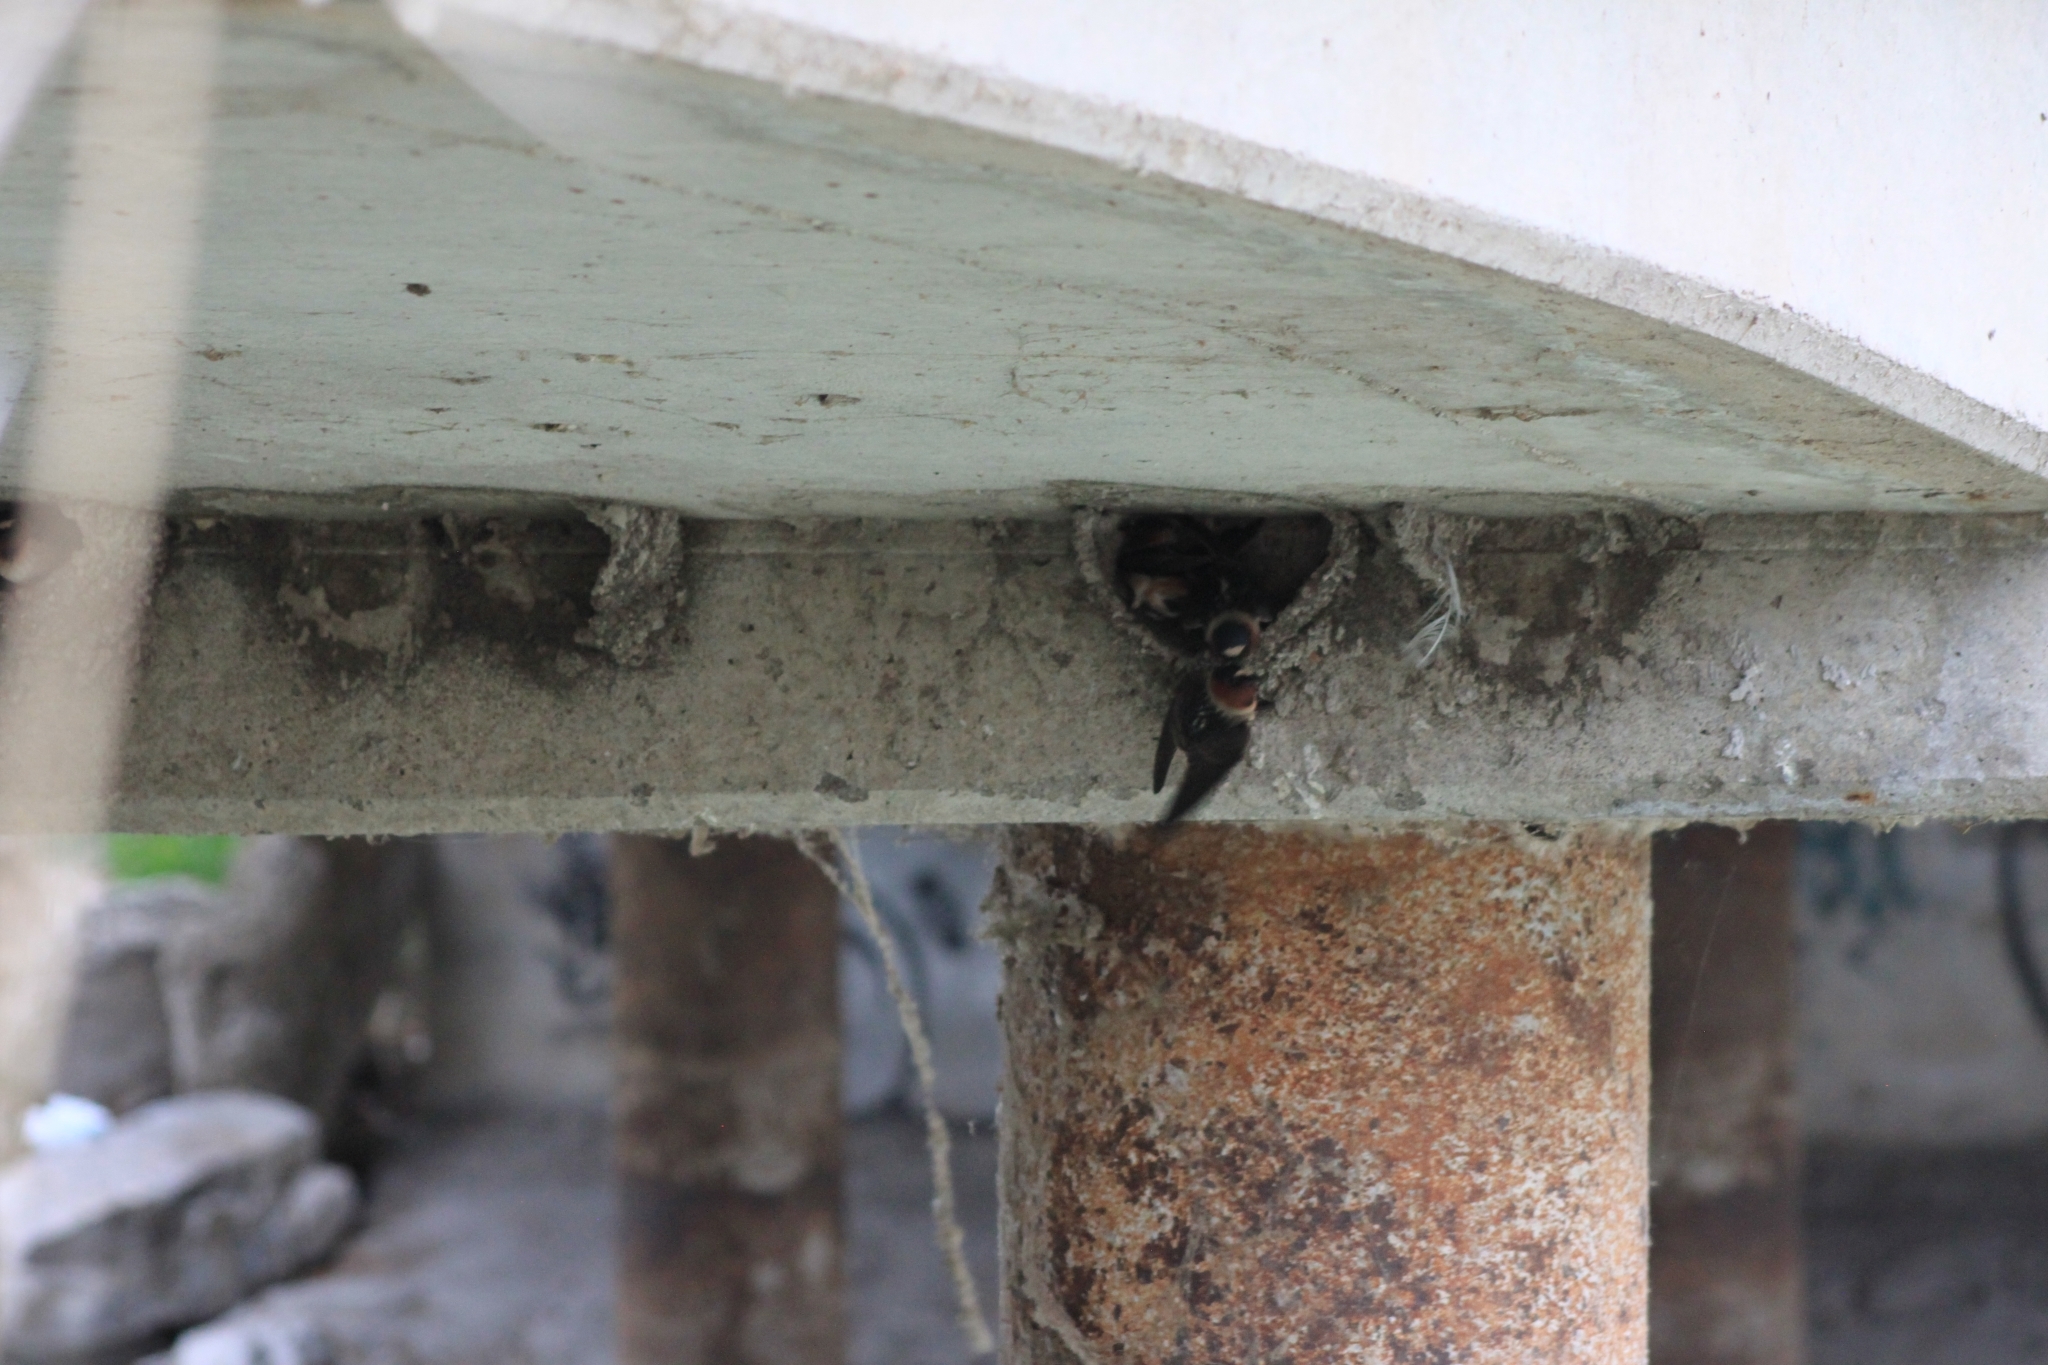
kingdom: Animalia
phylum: Chordata
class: Aves
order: Passeriformes
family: Hirundinidae
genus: Petrochelidon
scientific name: Petrochelidon pyrrhonota
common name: American cliff swallow
